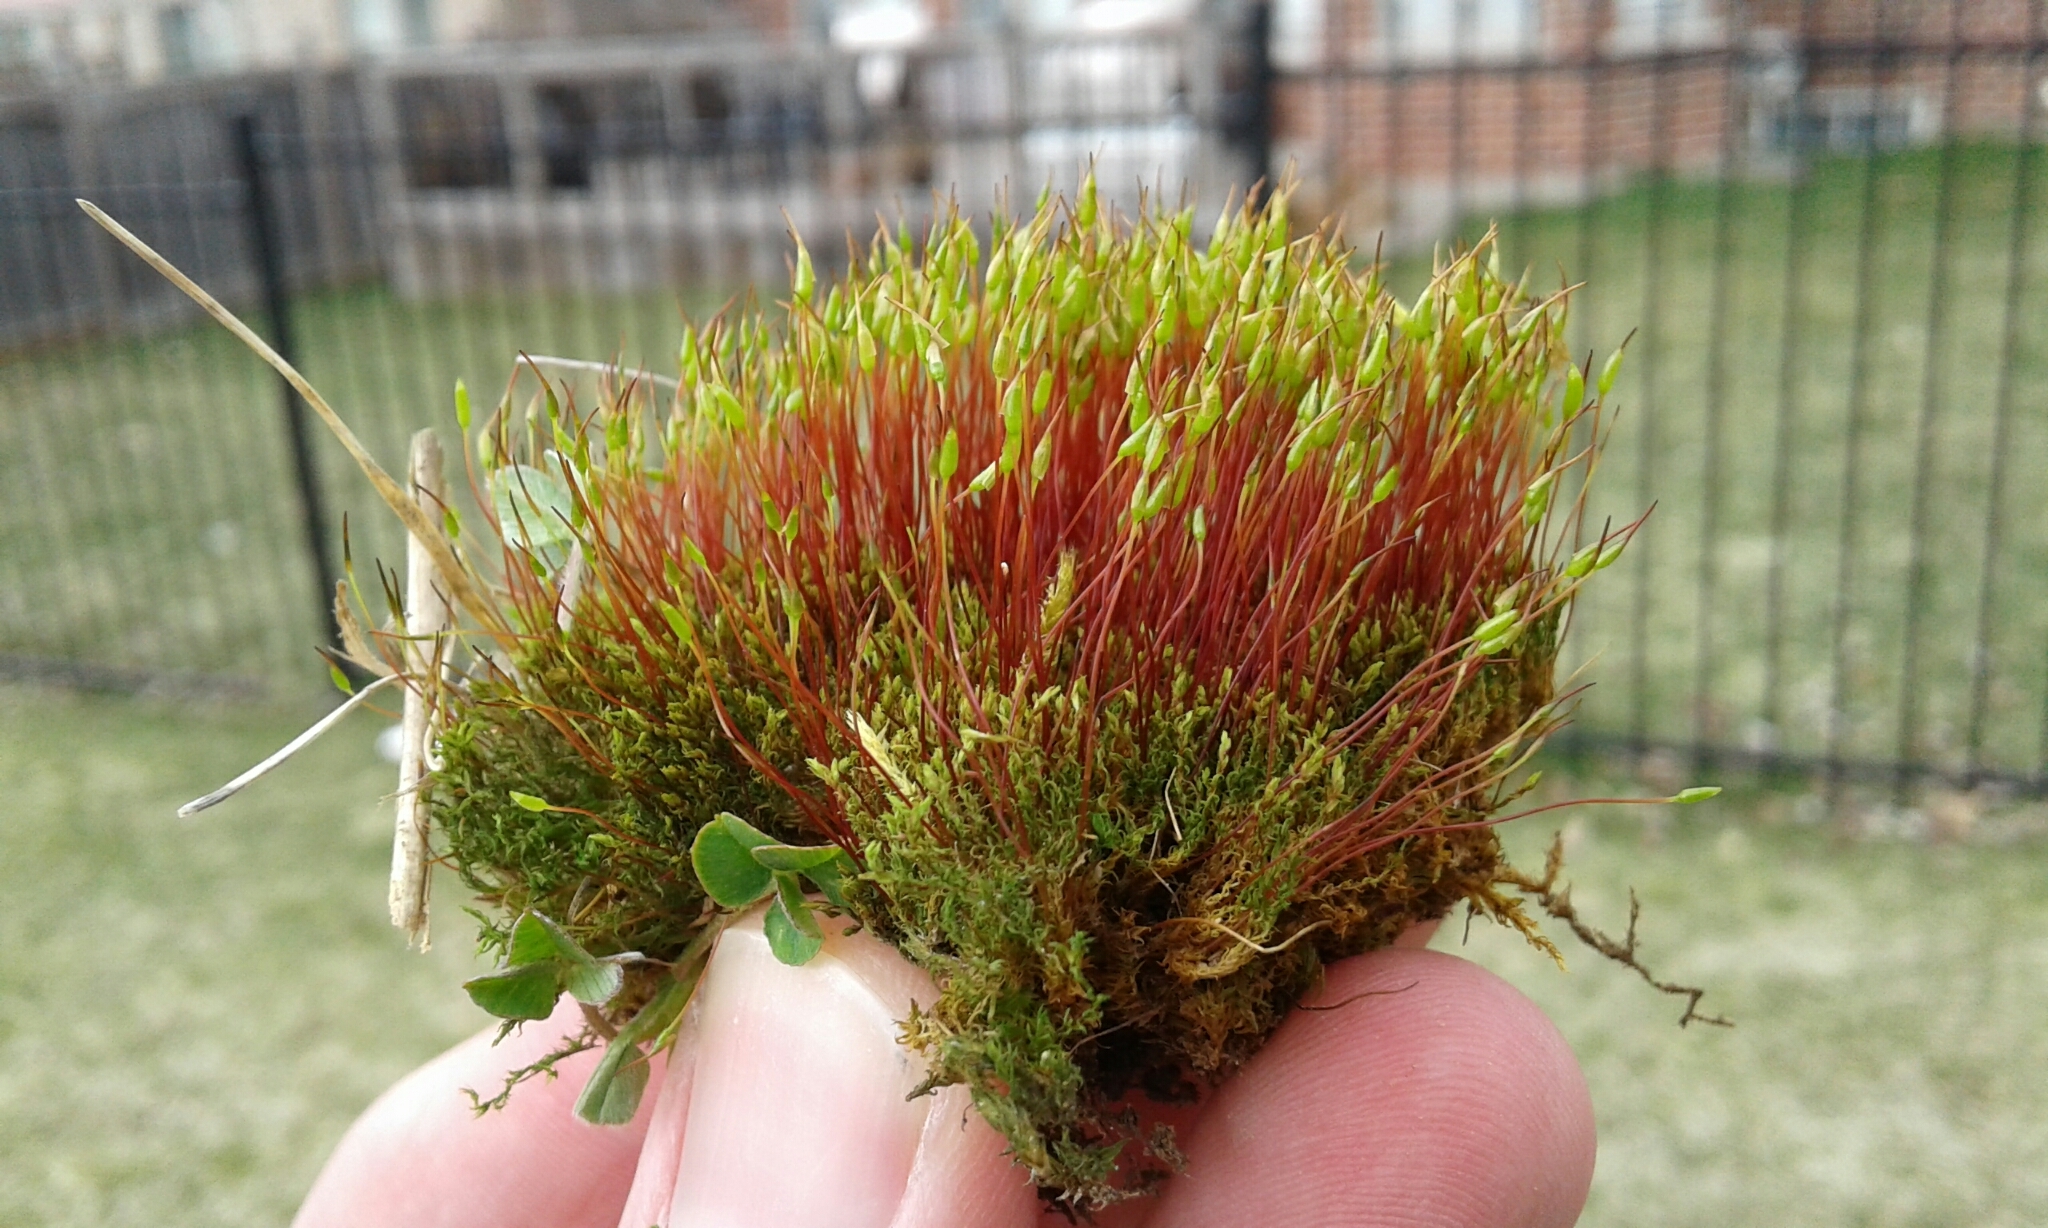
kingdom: Plantae
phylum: Bryophyta
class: Bryopsida
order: Dicranales
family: Ditrichaceae
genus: Ceratodon
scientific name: Ceratodon purpureus
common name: Redshank
